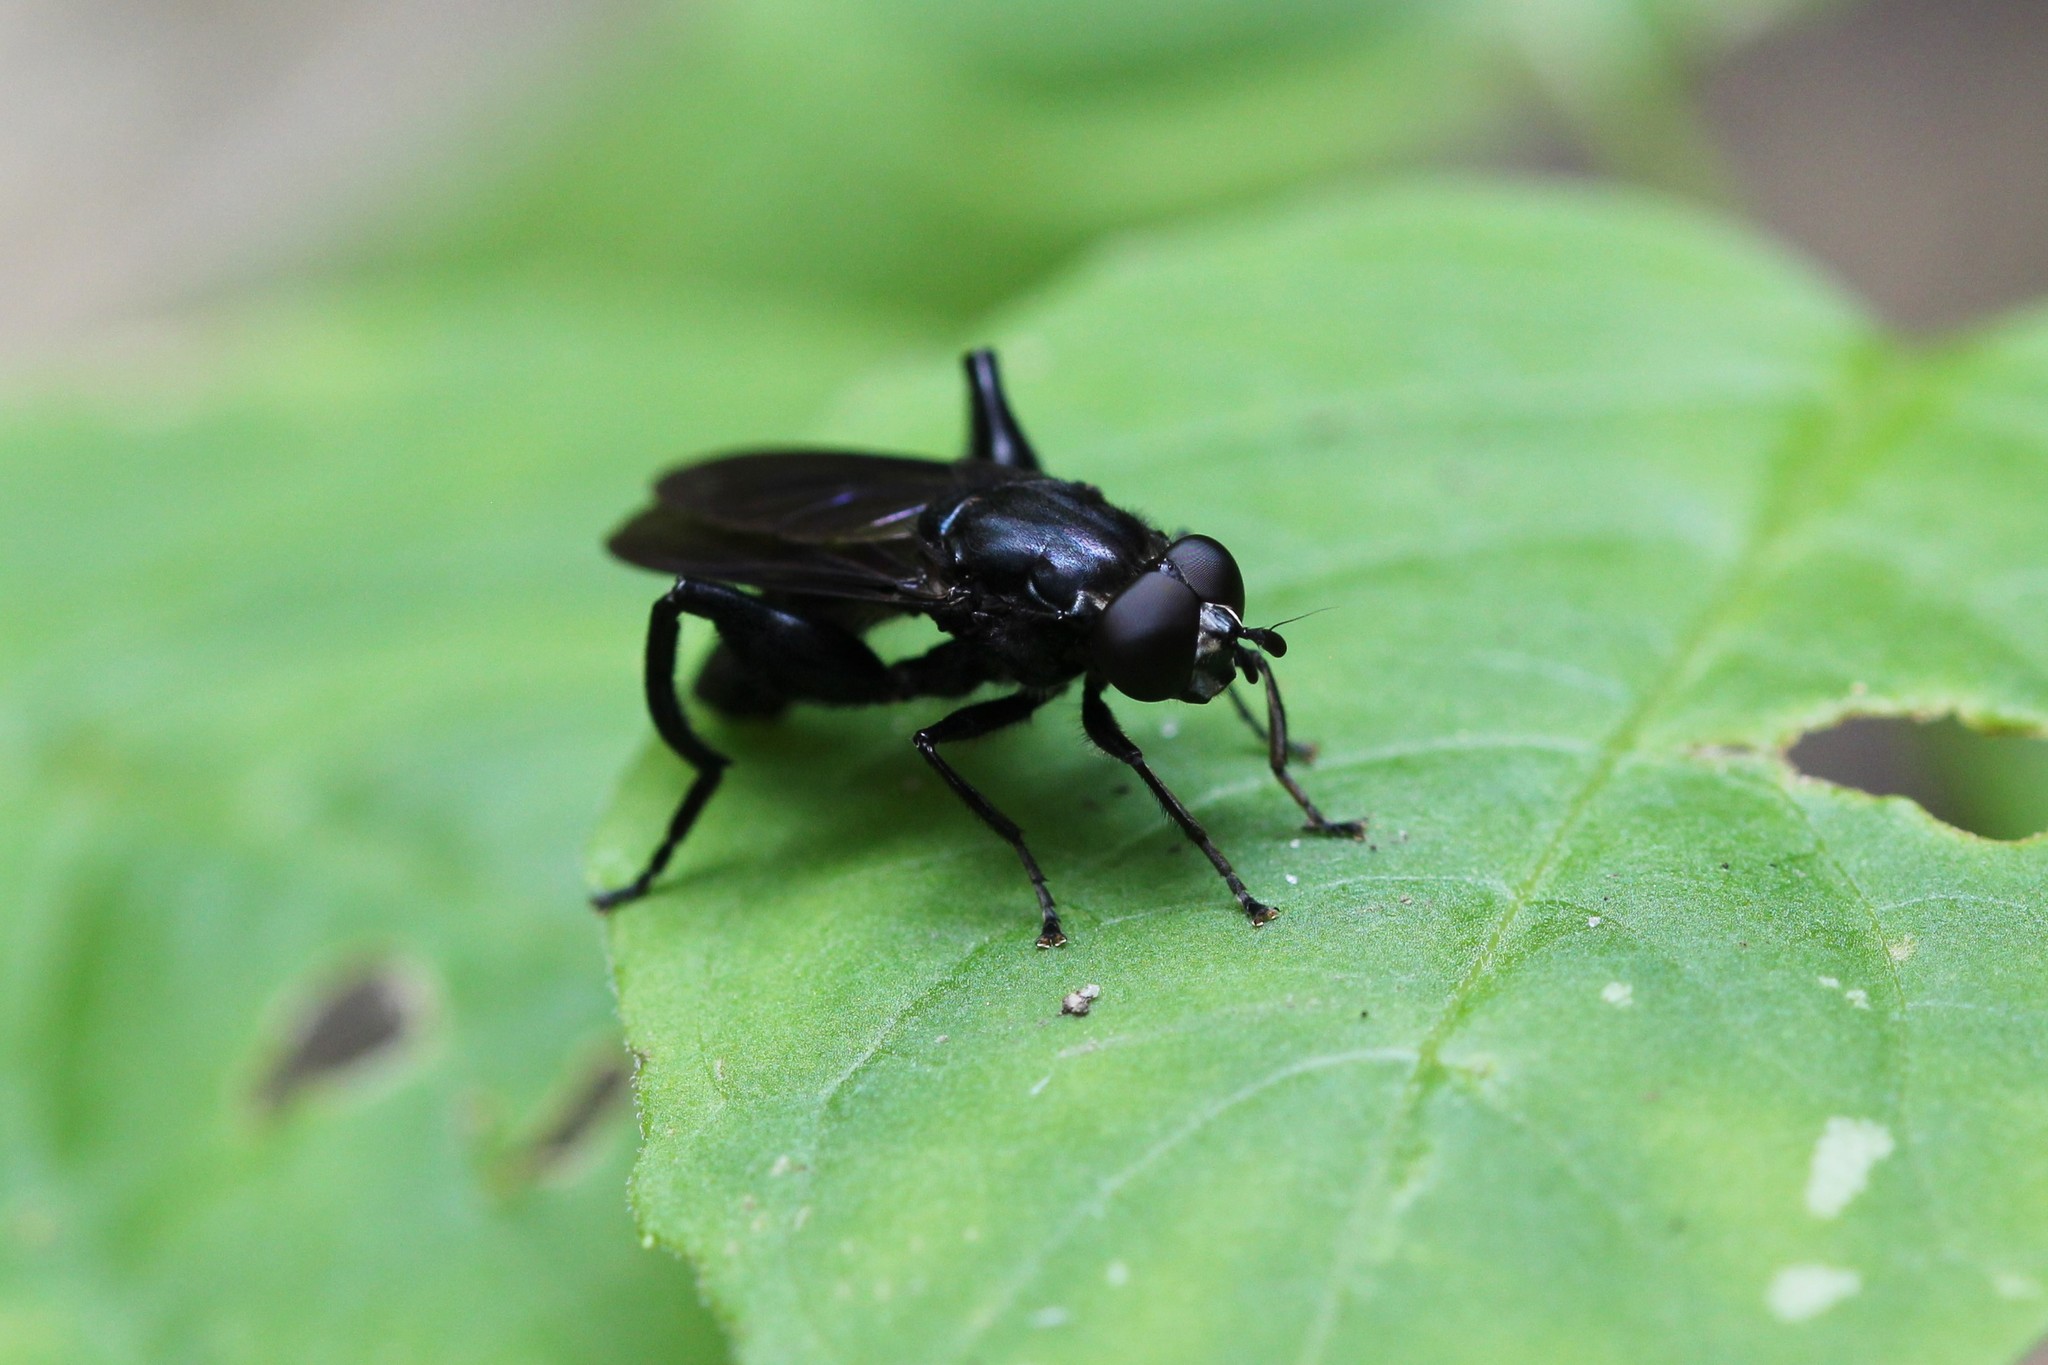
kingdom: Animalia
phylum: Arthropoda
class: Insecta
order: Diptera
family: Syrphidae
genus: Chalcosyrphus
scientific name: Chalcosyrphus chalybeus
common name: Violet leafwalker
